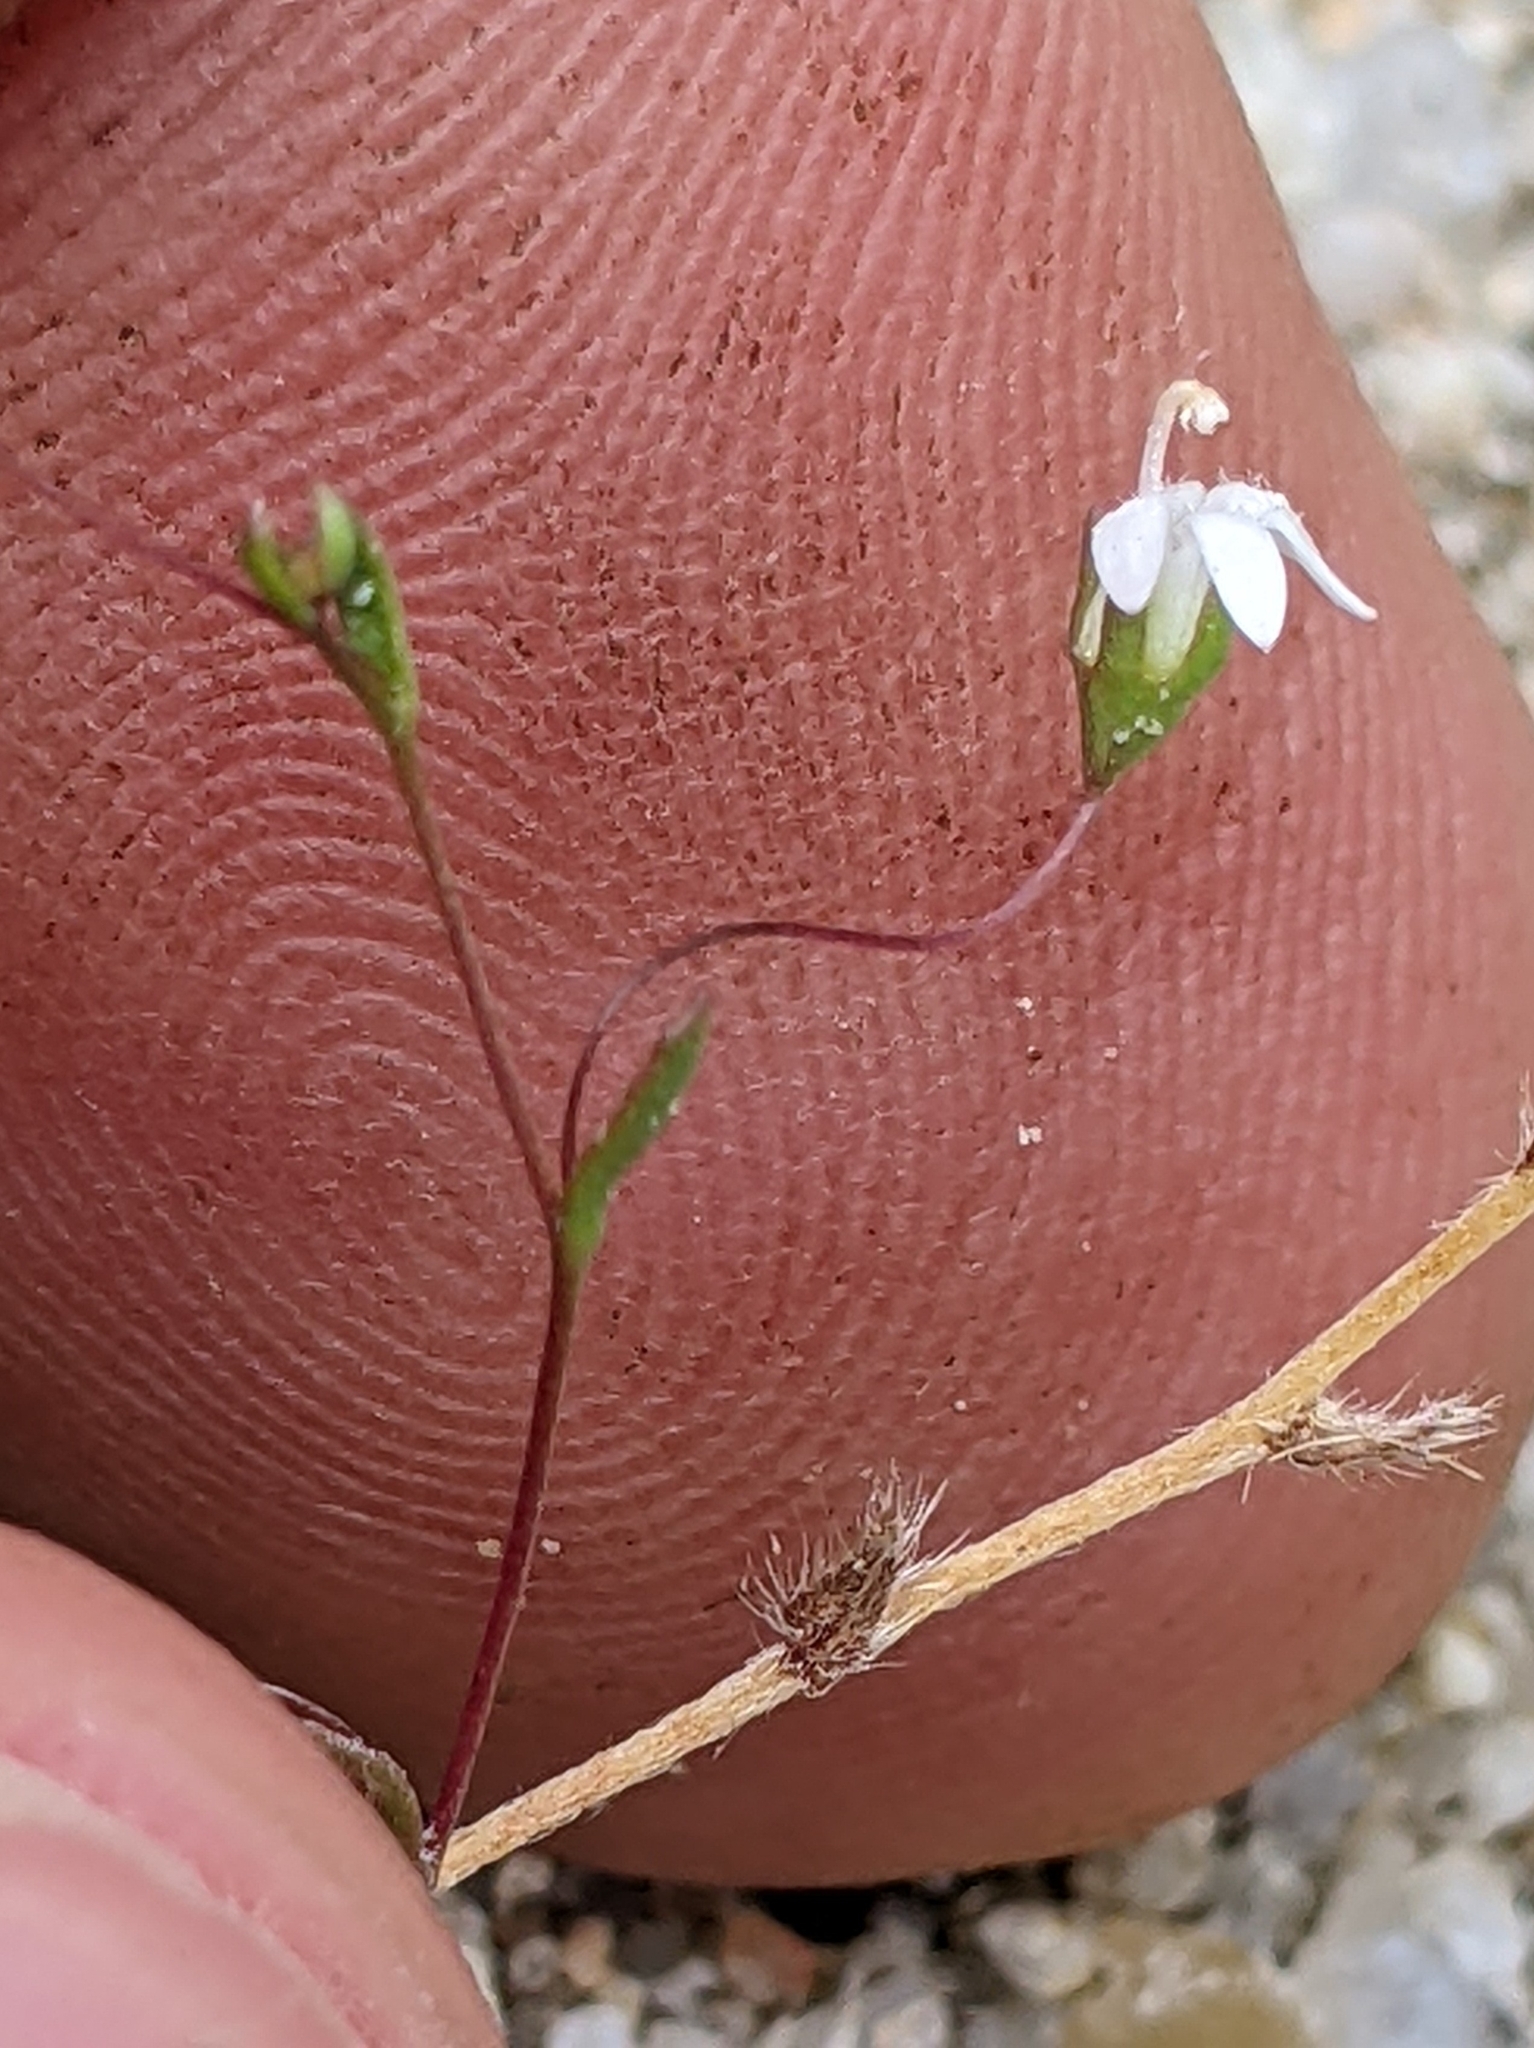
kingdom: Plantae
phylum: Tracheophyta
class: Magnoliopsida
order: Asterales
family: Campanulaceae
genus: Nemacladus
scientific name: Nemacladus secundiflorus
